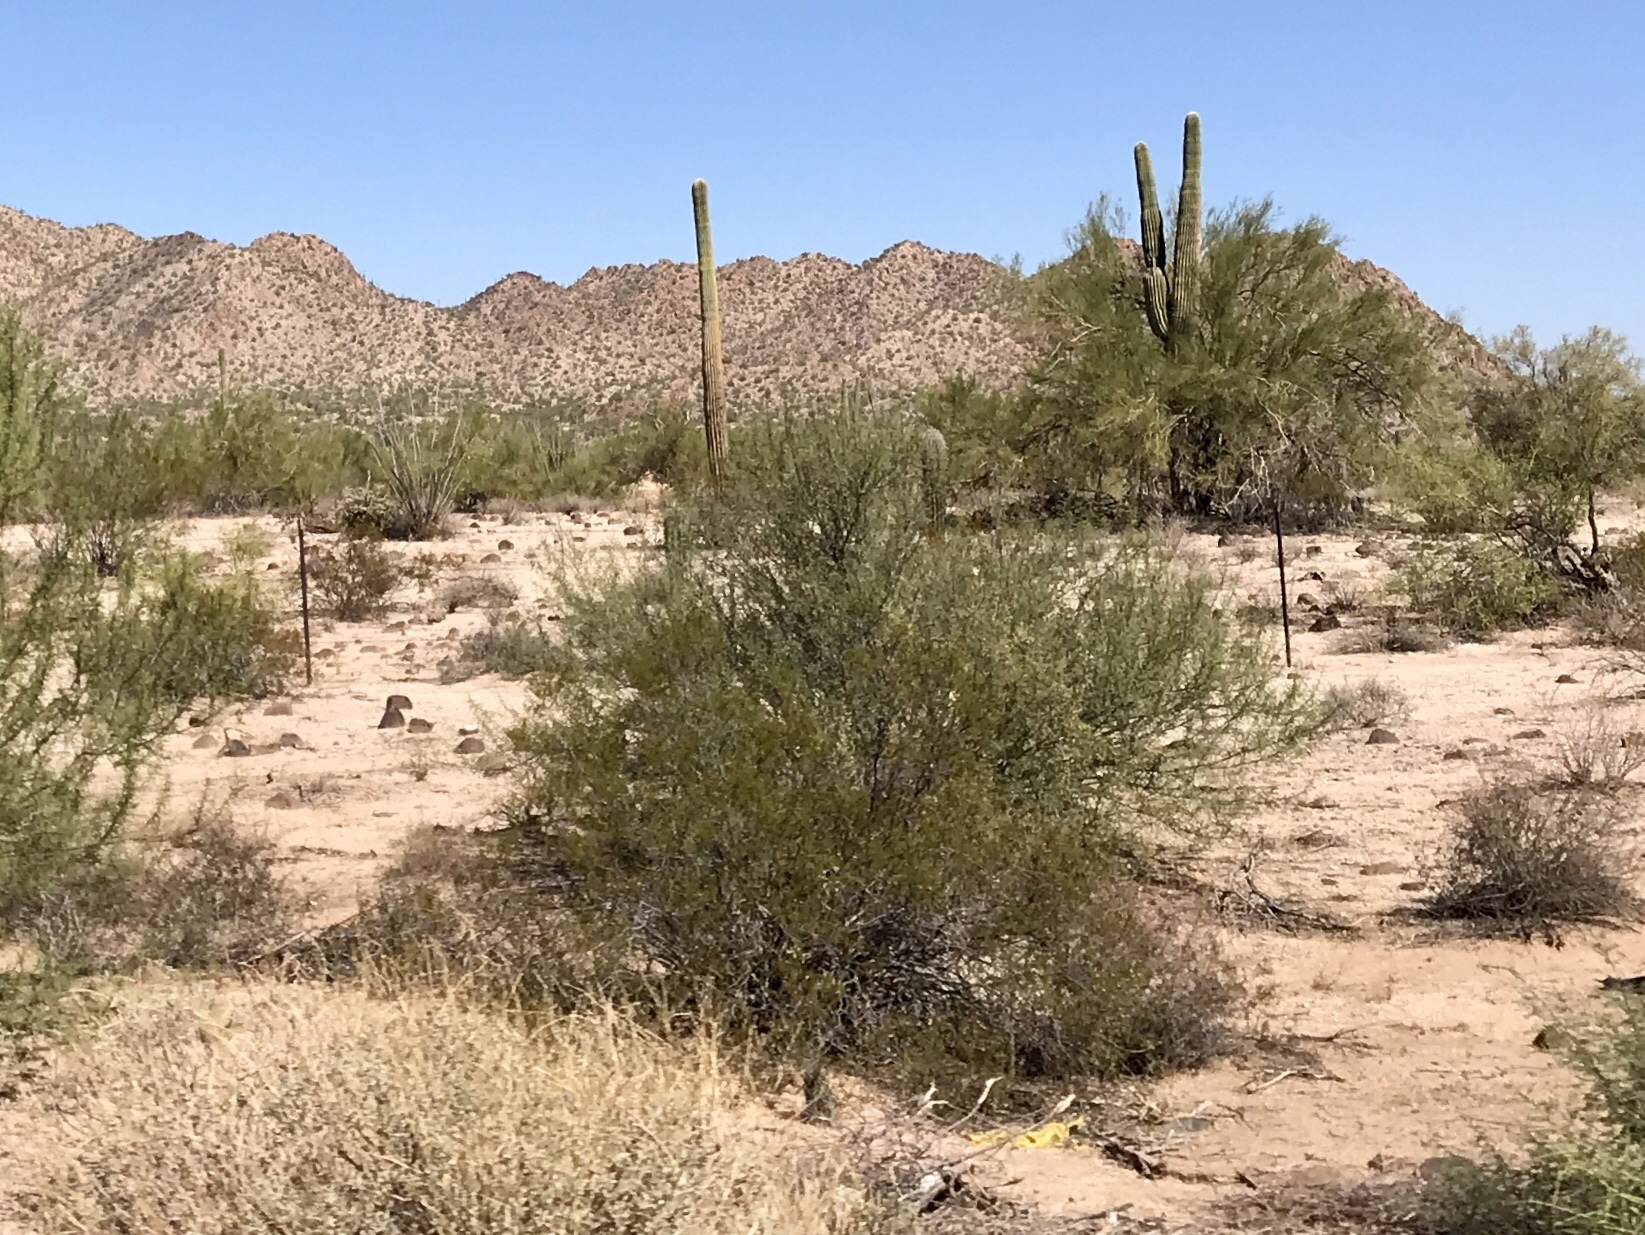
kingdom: Plantae
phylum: Tracheophyta
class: Magnoliopsida
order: Zygophyllales
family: Zygophyllaceae
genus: Larrea
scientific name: Larrea tridentata
